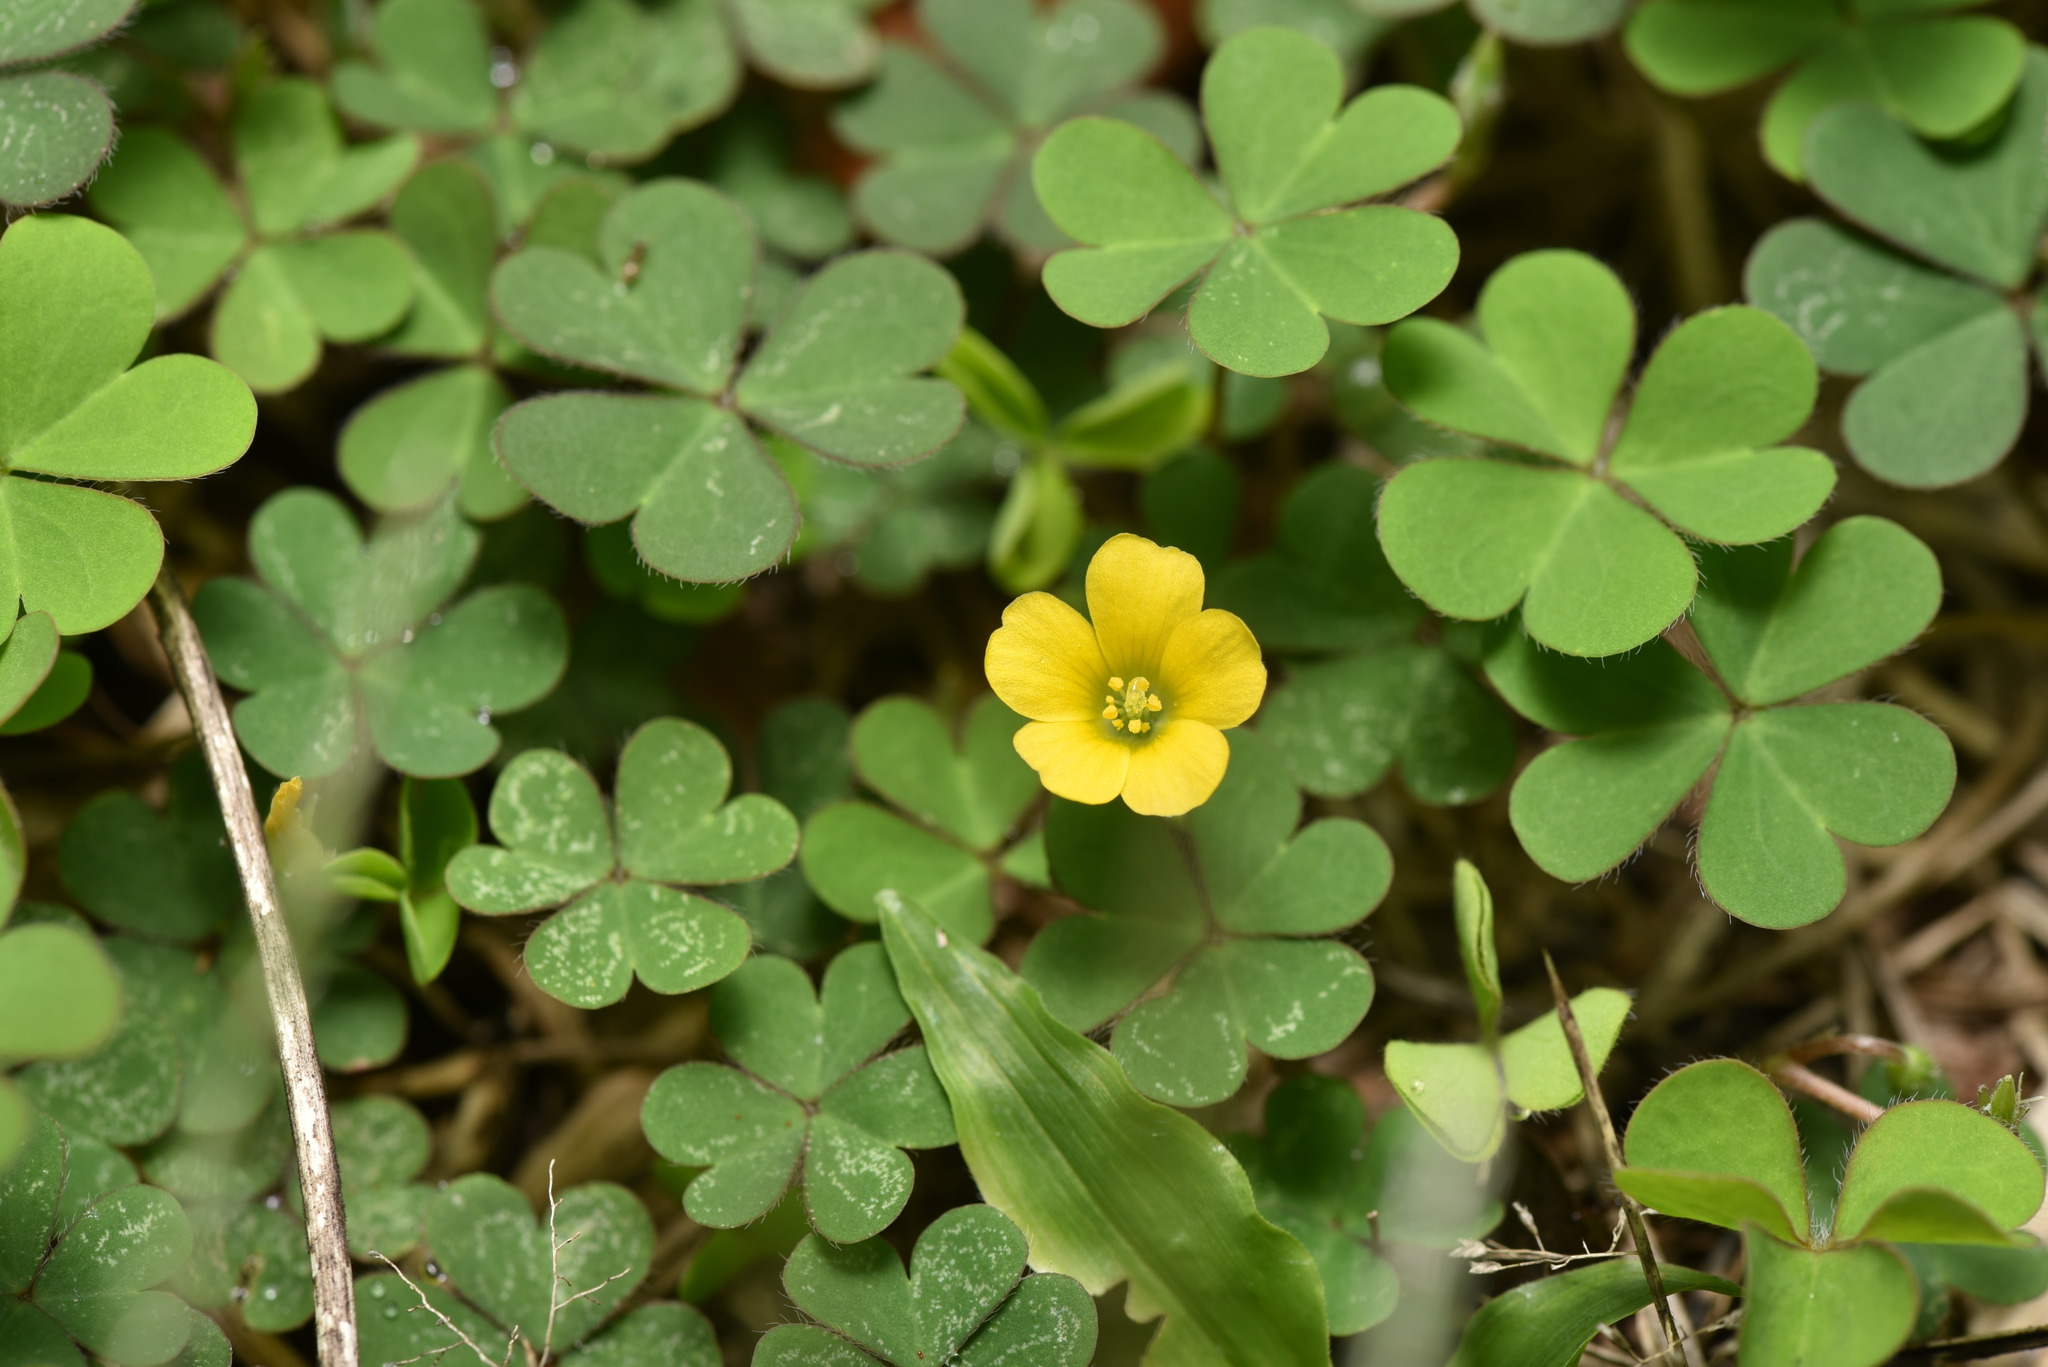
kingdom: Plantae
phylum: Tracheophyta
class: Magnoliopsida
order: Oxalidales
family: Oxalidaceae
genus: Oxalis
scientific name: Oxalis corniculata
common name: Procumbent yellow-sorrel
